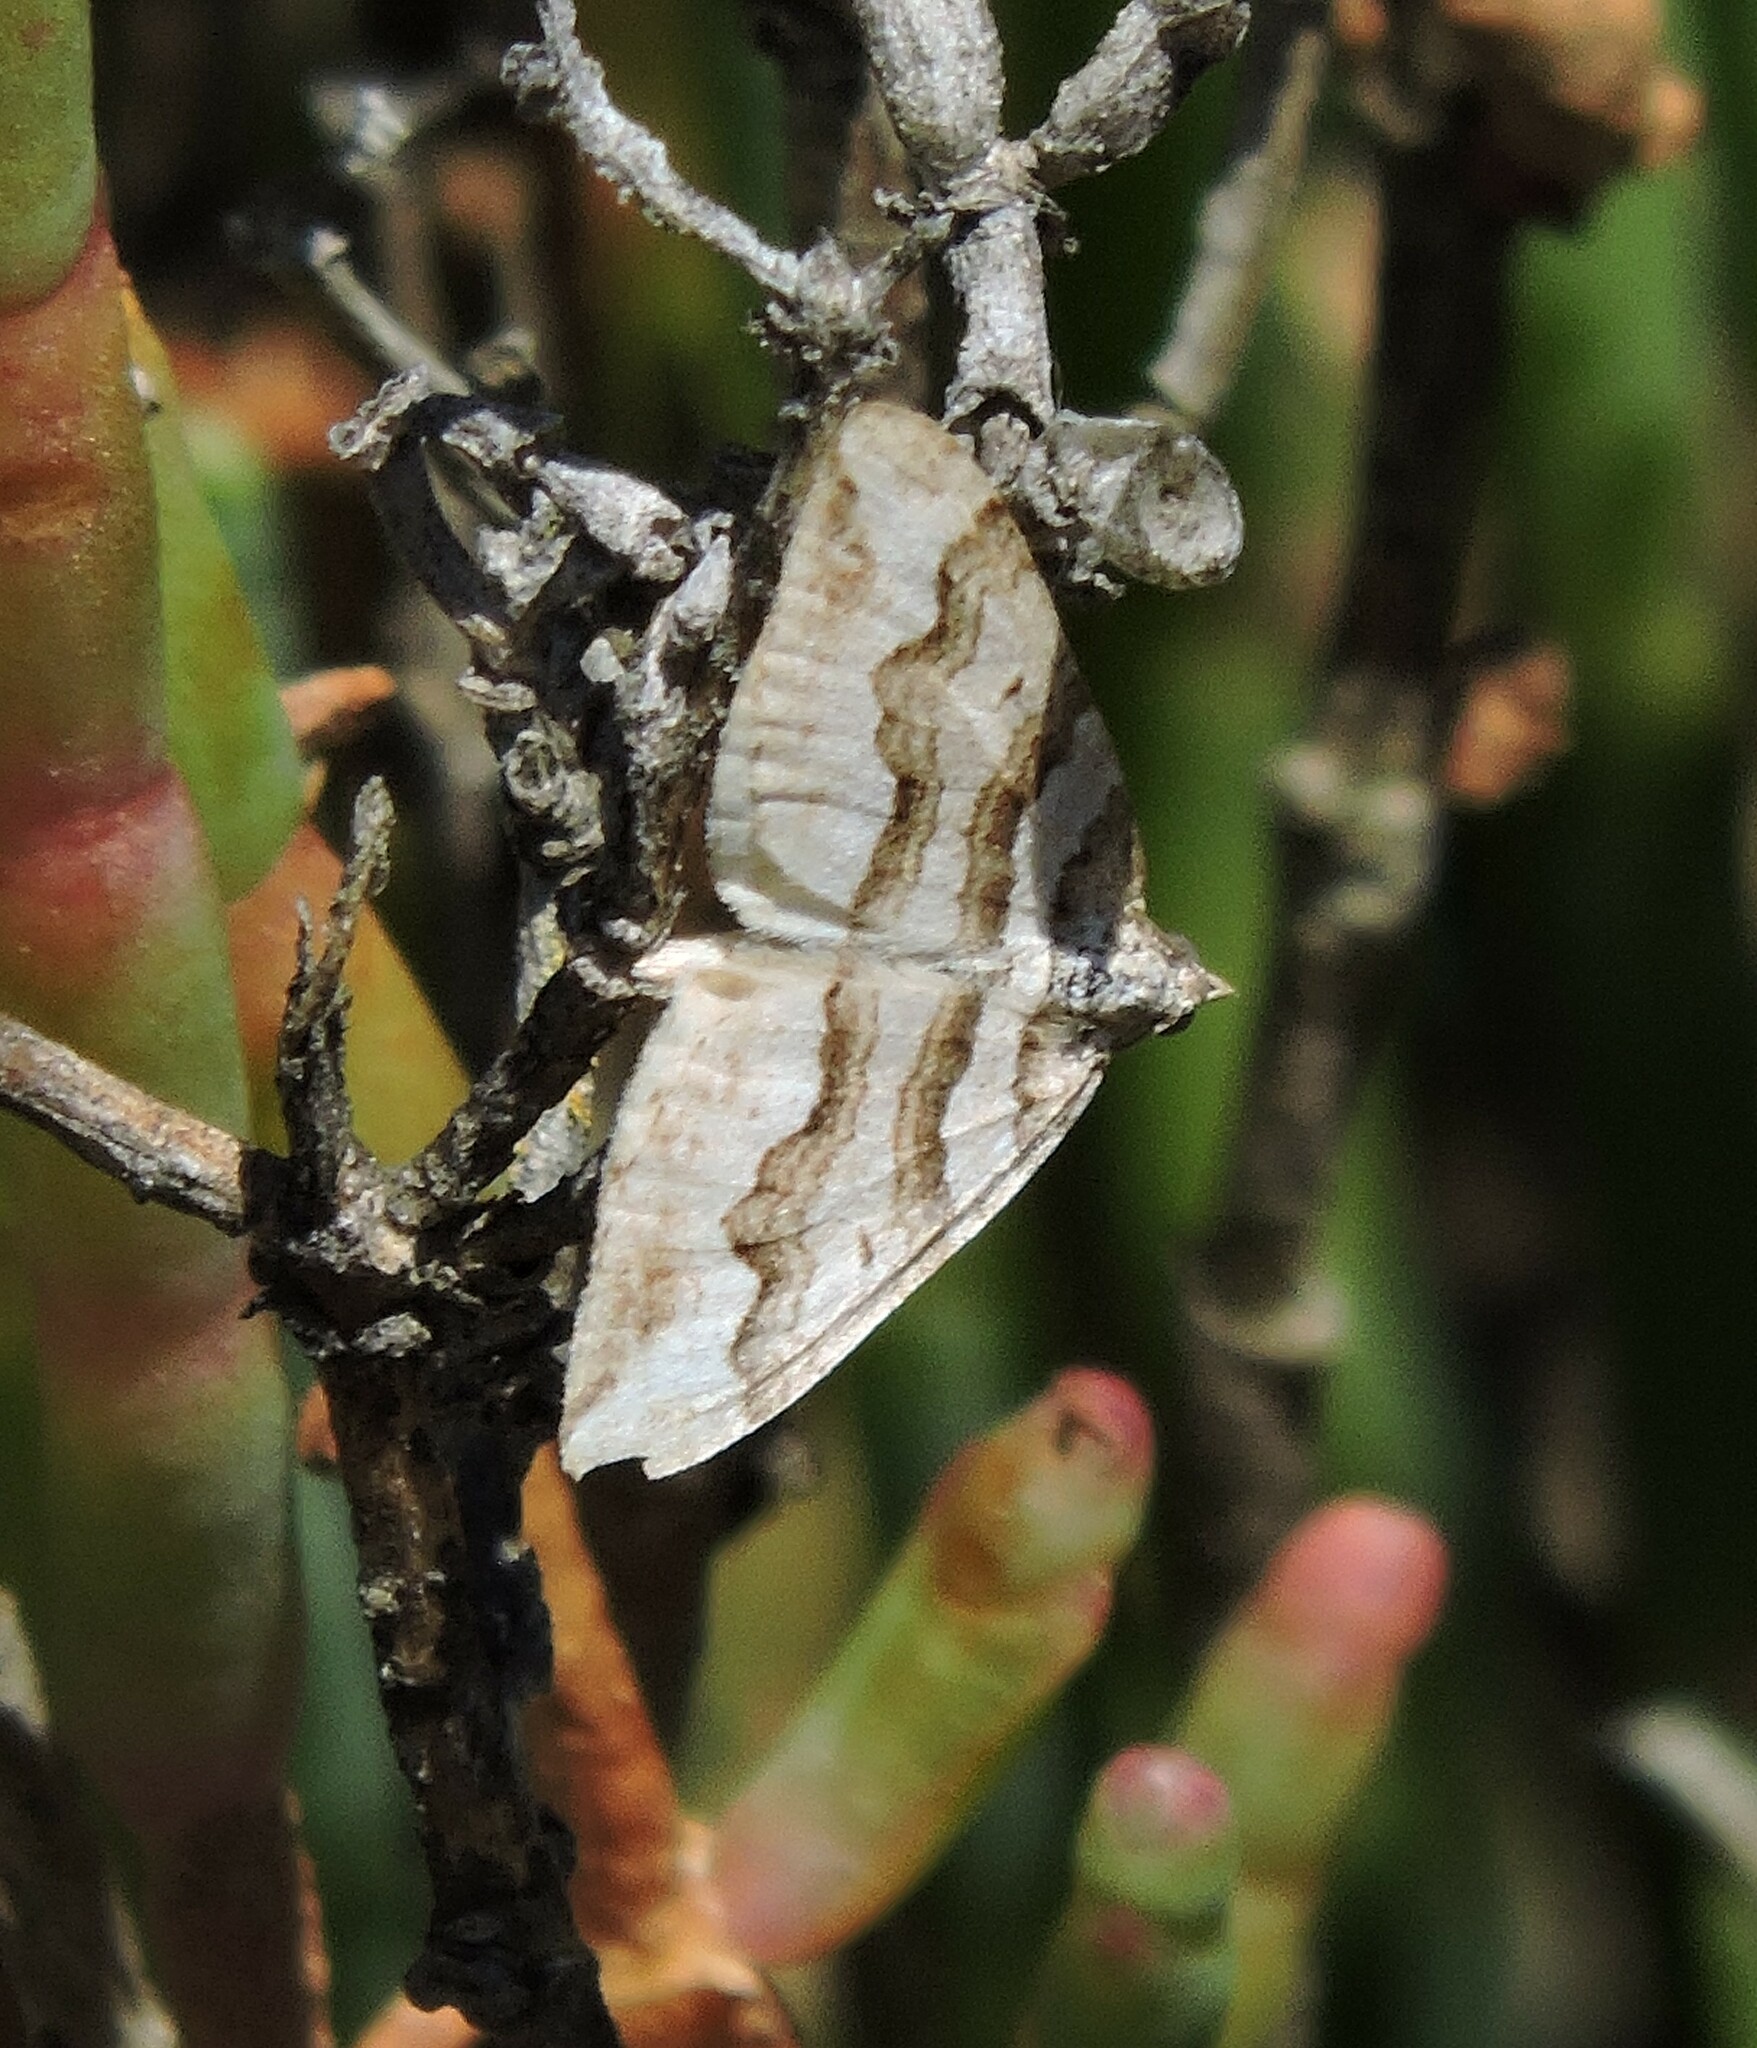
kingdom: Animalia
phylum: Arthropoda
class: Insecta
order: Lepidoptera
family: Geometridae
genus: Perizoma
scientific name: Perizoma epictata
